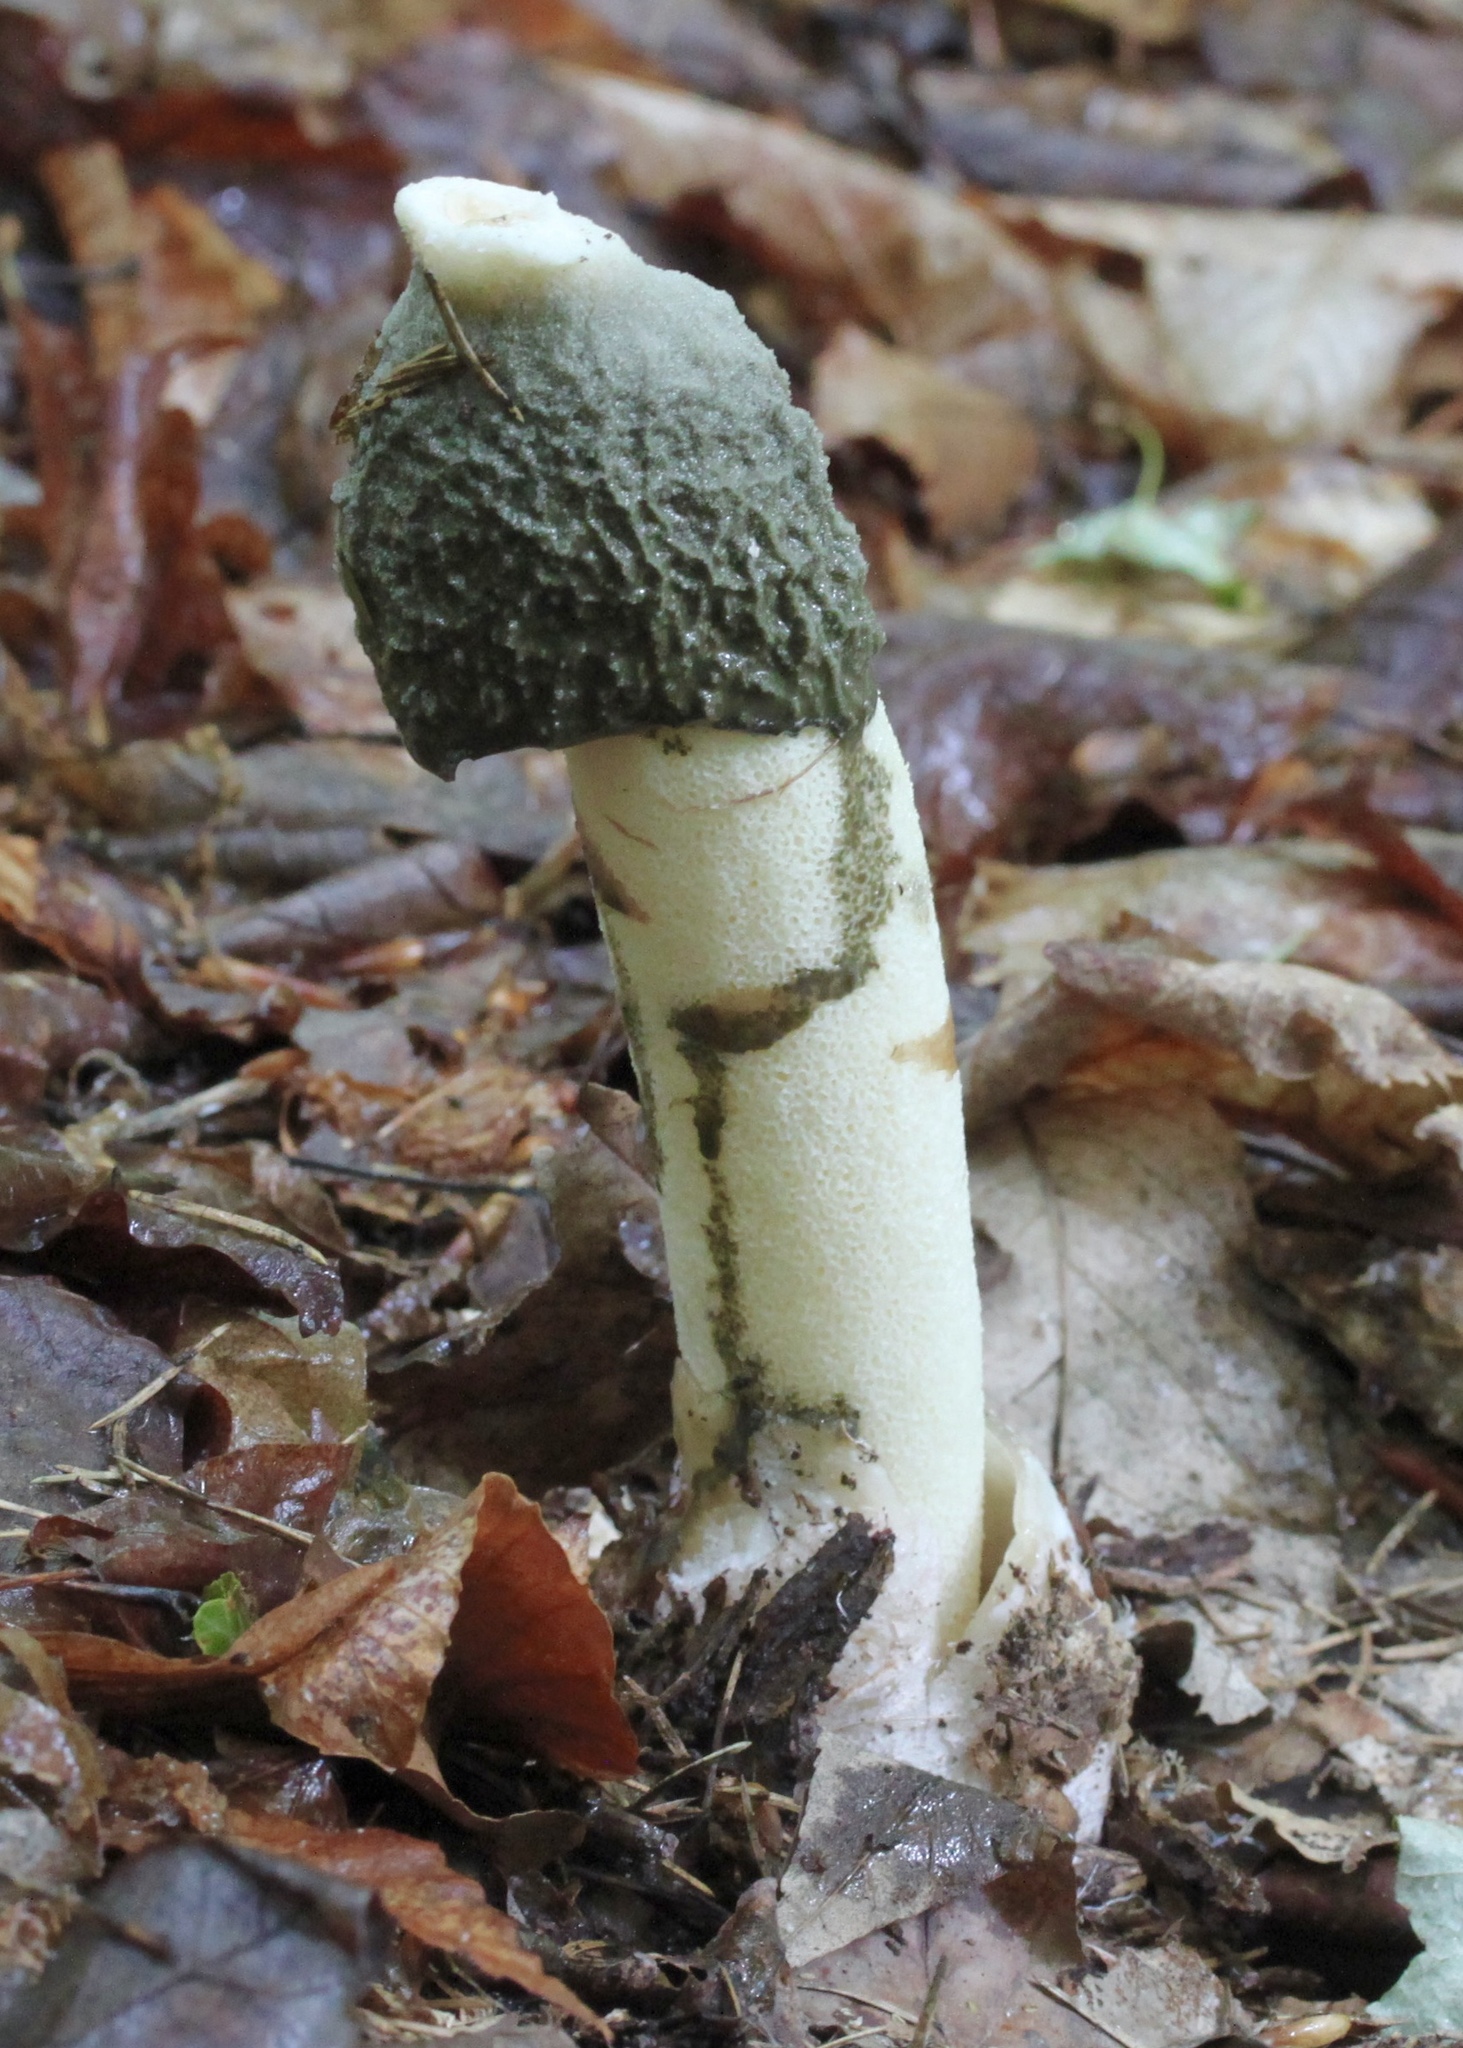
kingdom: Fungi
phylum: Basidiomycota
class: Agaricomycetes
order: Phallales
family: Phallaceae
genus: Phallus
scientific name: Phallus ravenelii
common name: Ravenel's stinkhorn
